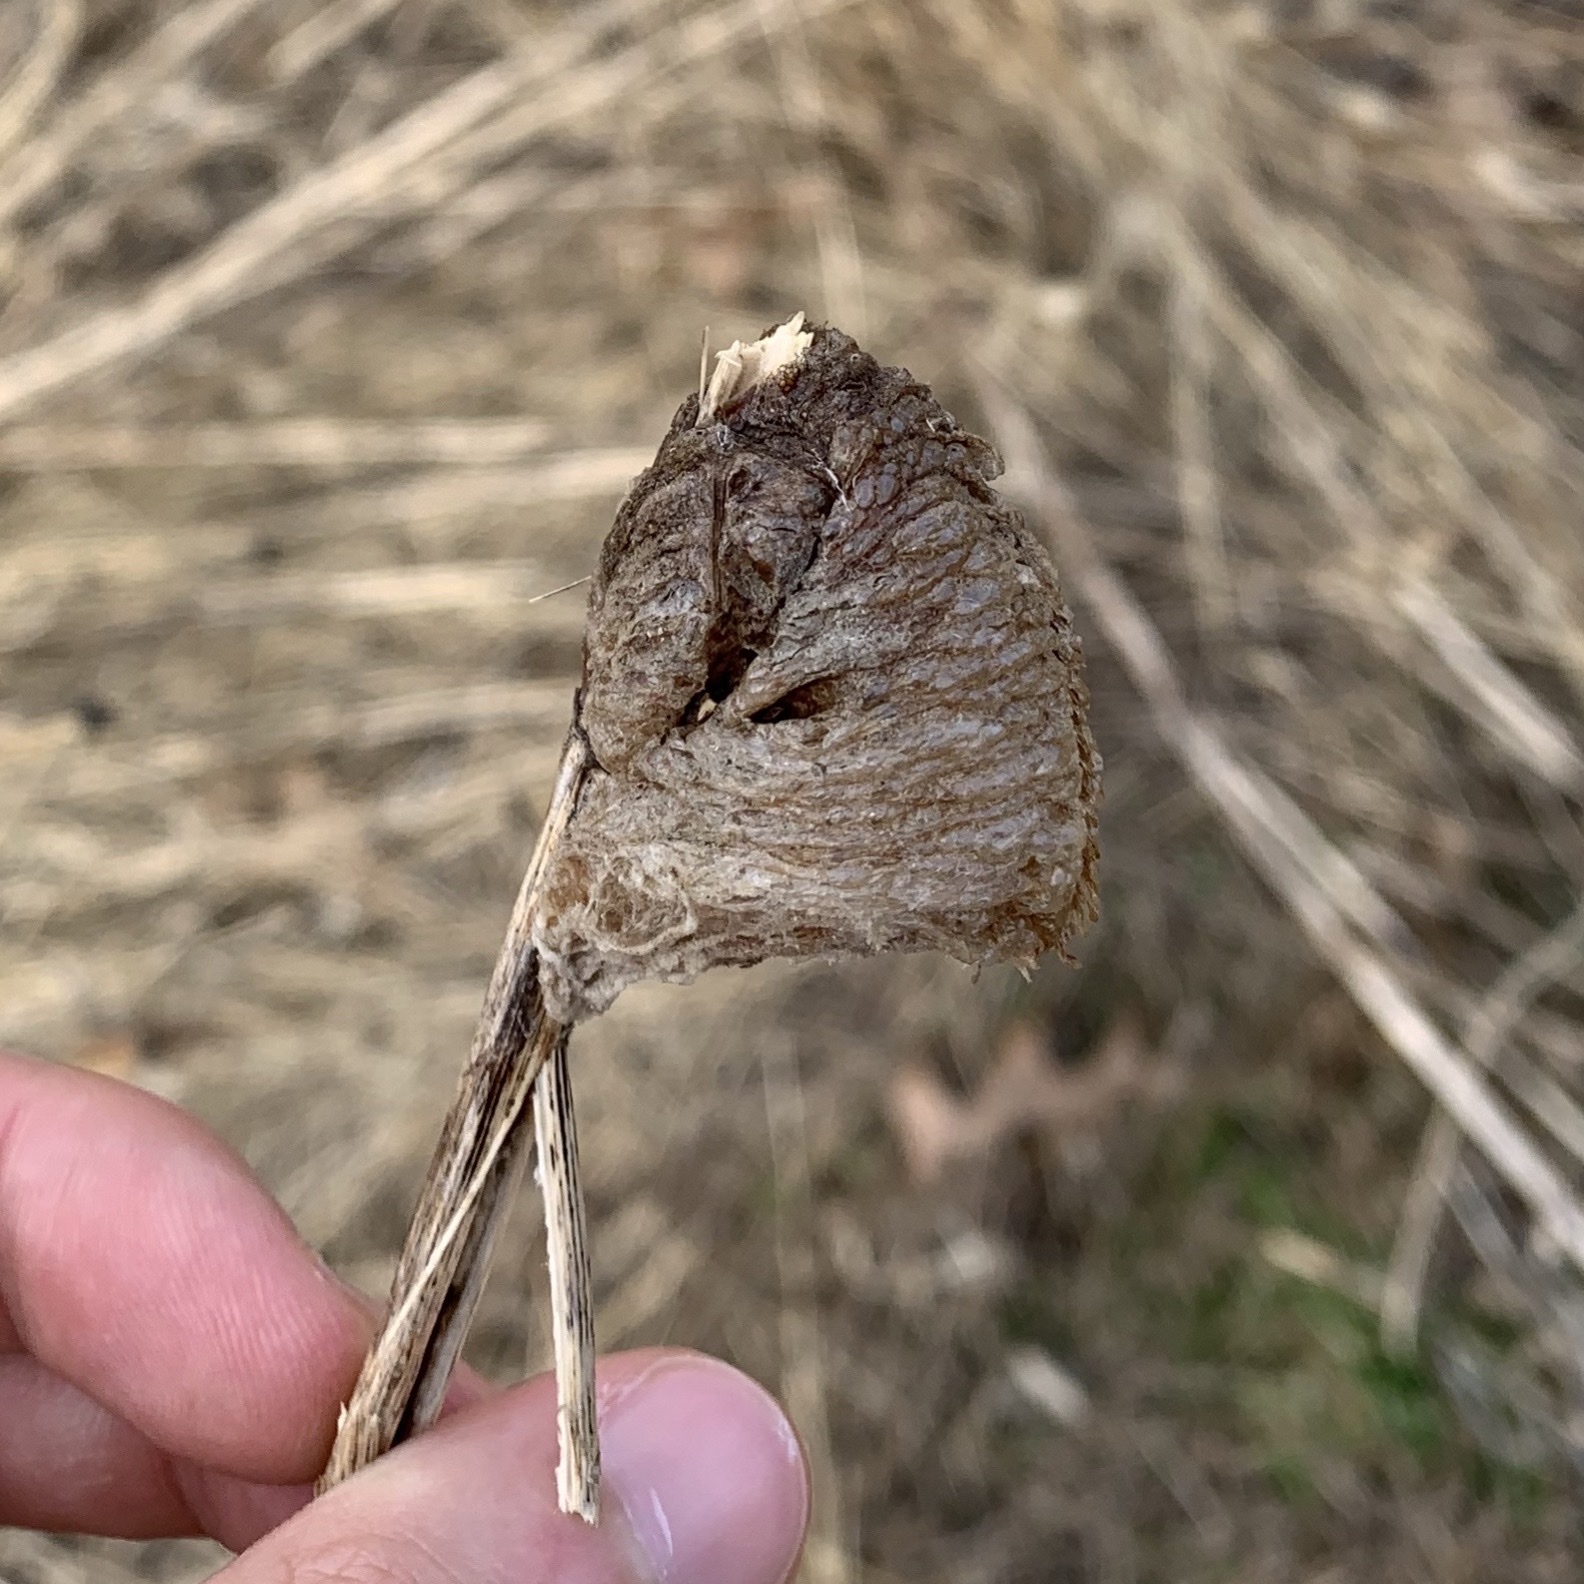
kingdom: Animalia
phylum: Arthropoda
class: Insecta
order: Mantodea
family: Mantidae
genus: Tenodera
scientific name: Tenodera sinensis
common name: Chinese mantis
